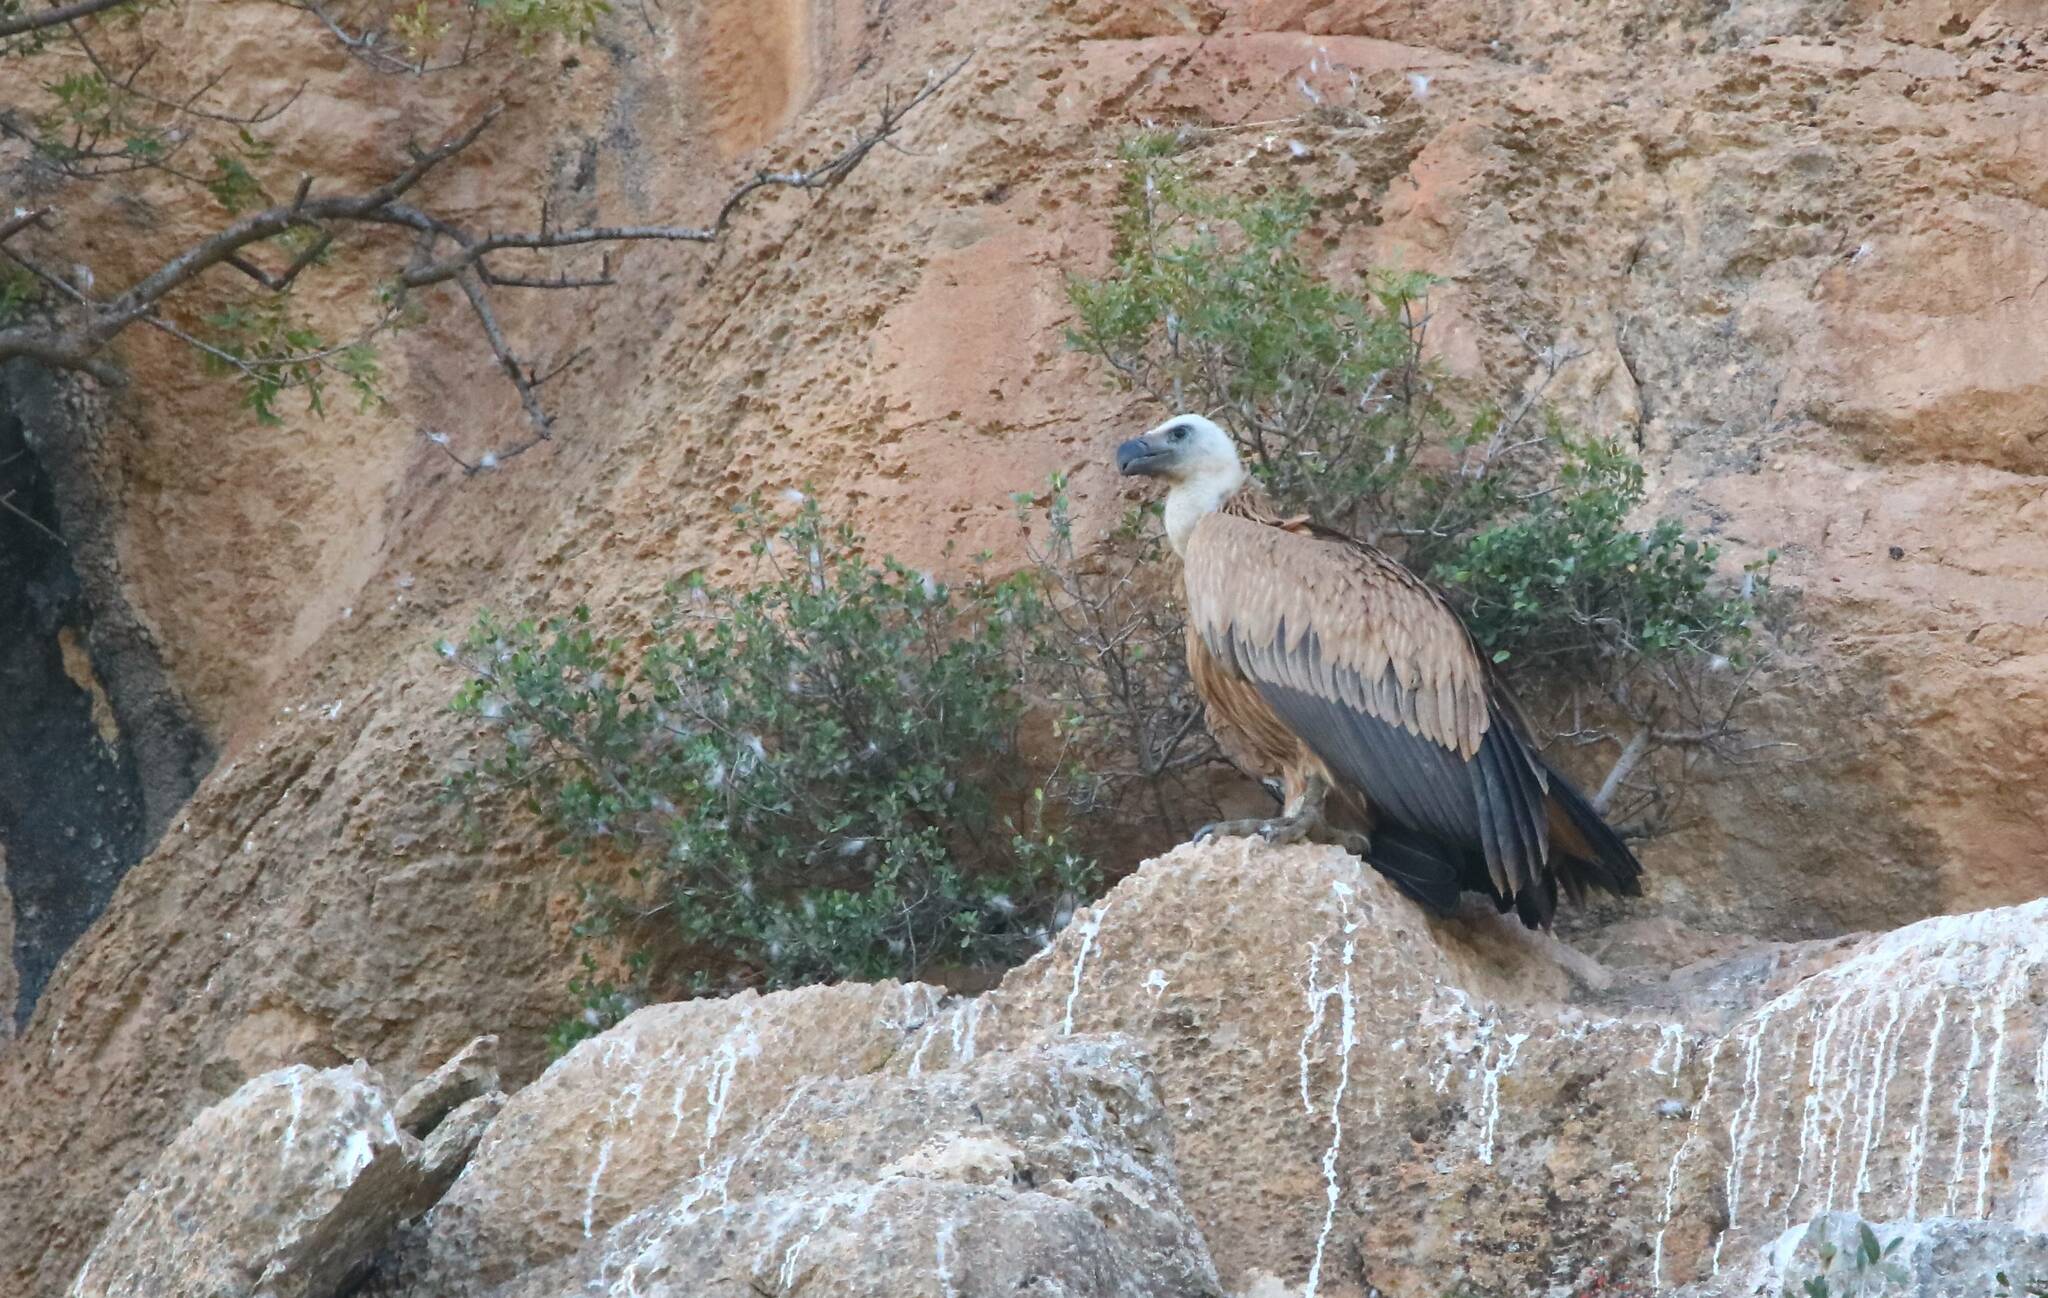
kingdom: Animalia
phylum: Chordata
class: Aves
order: Accipitriformes
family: Accipitridae
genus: Gyps
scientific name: Gyps fulvus
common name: Griffon vulture
